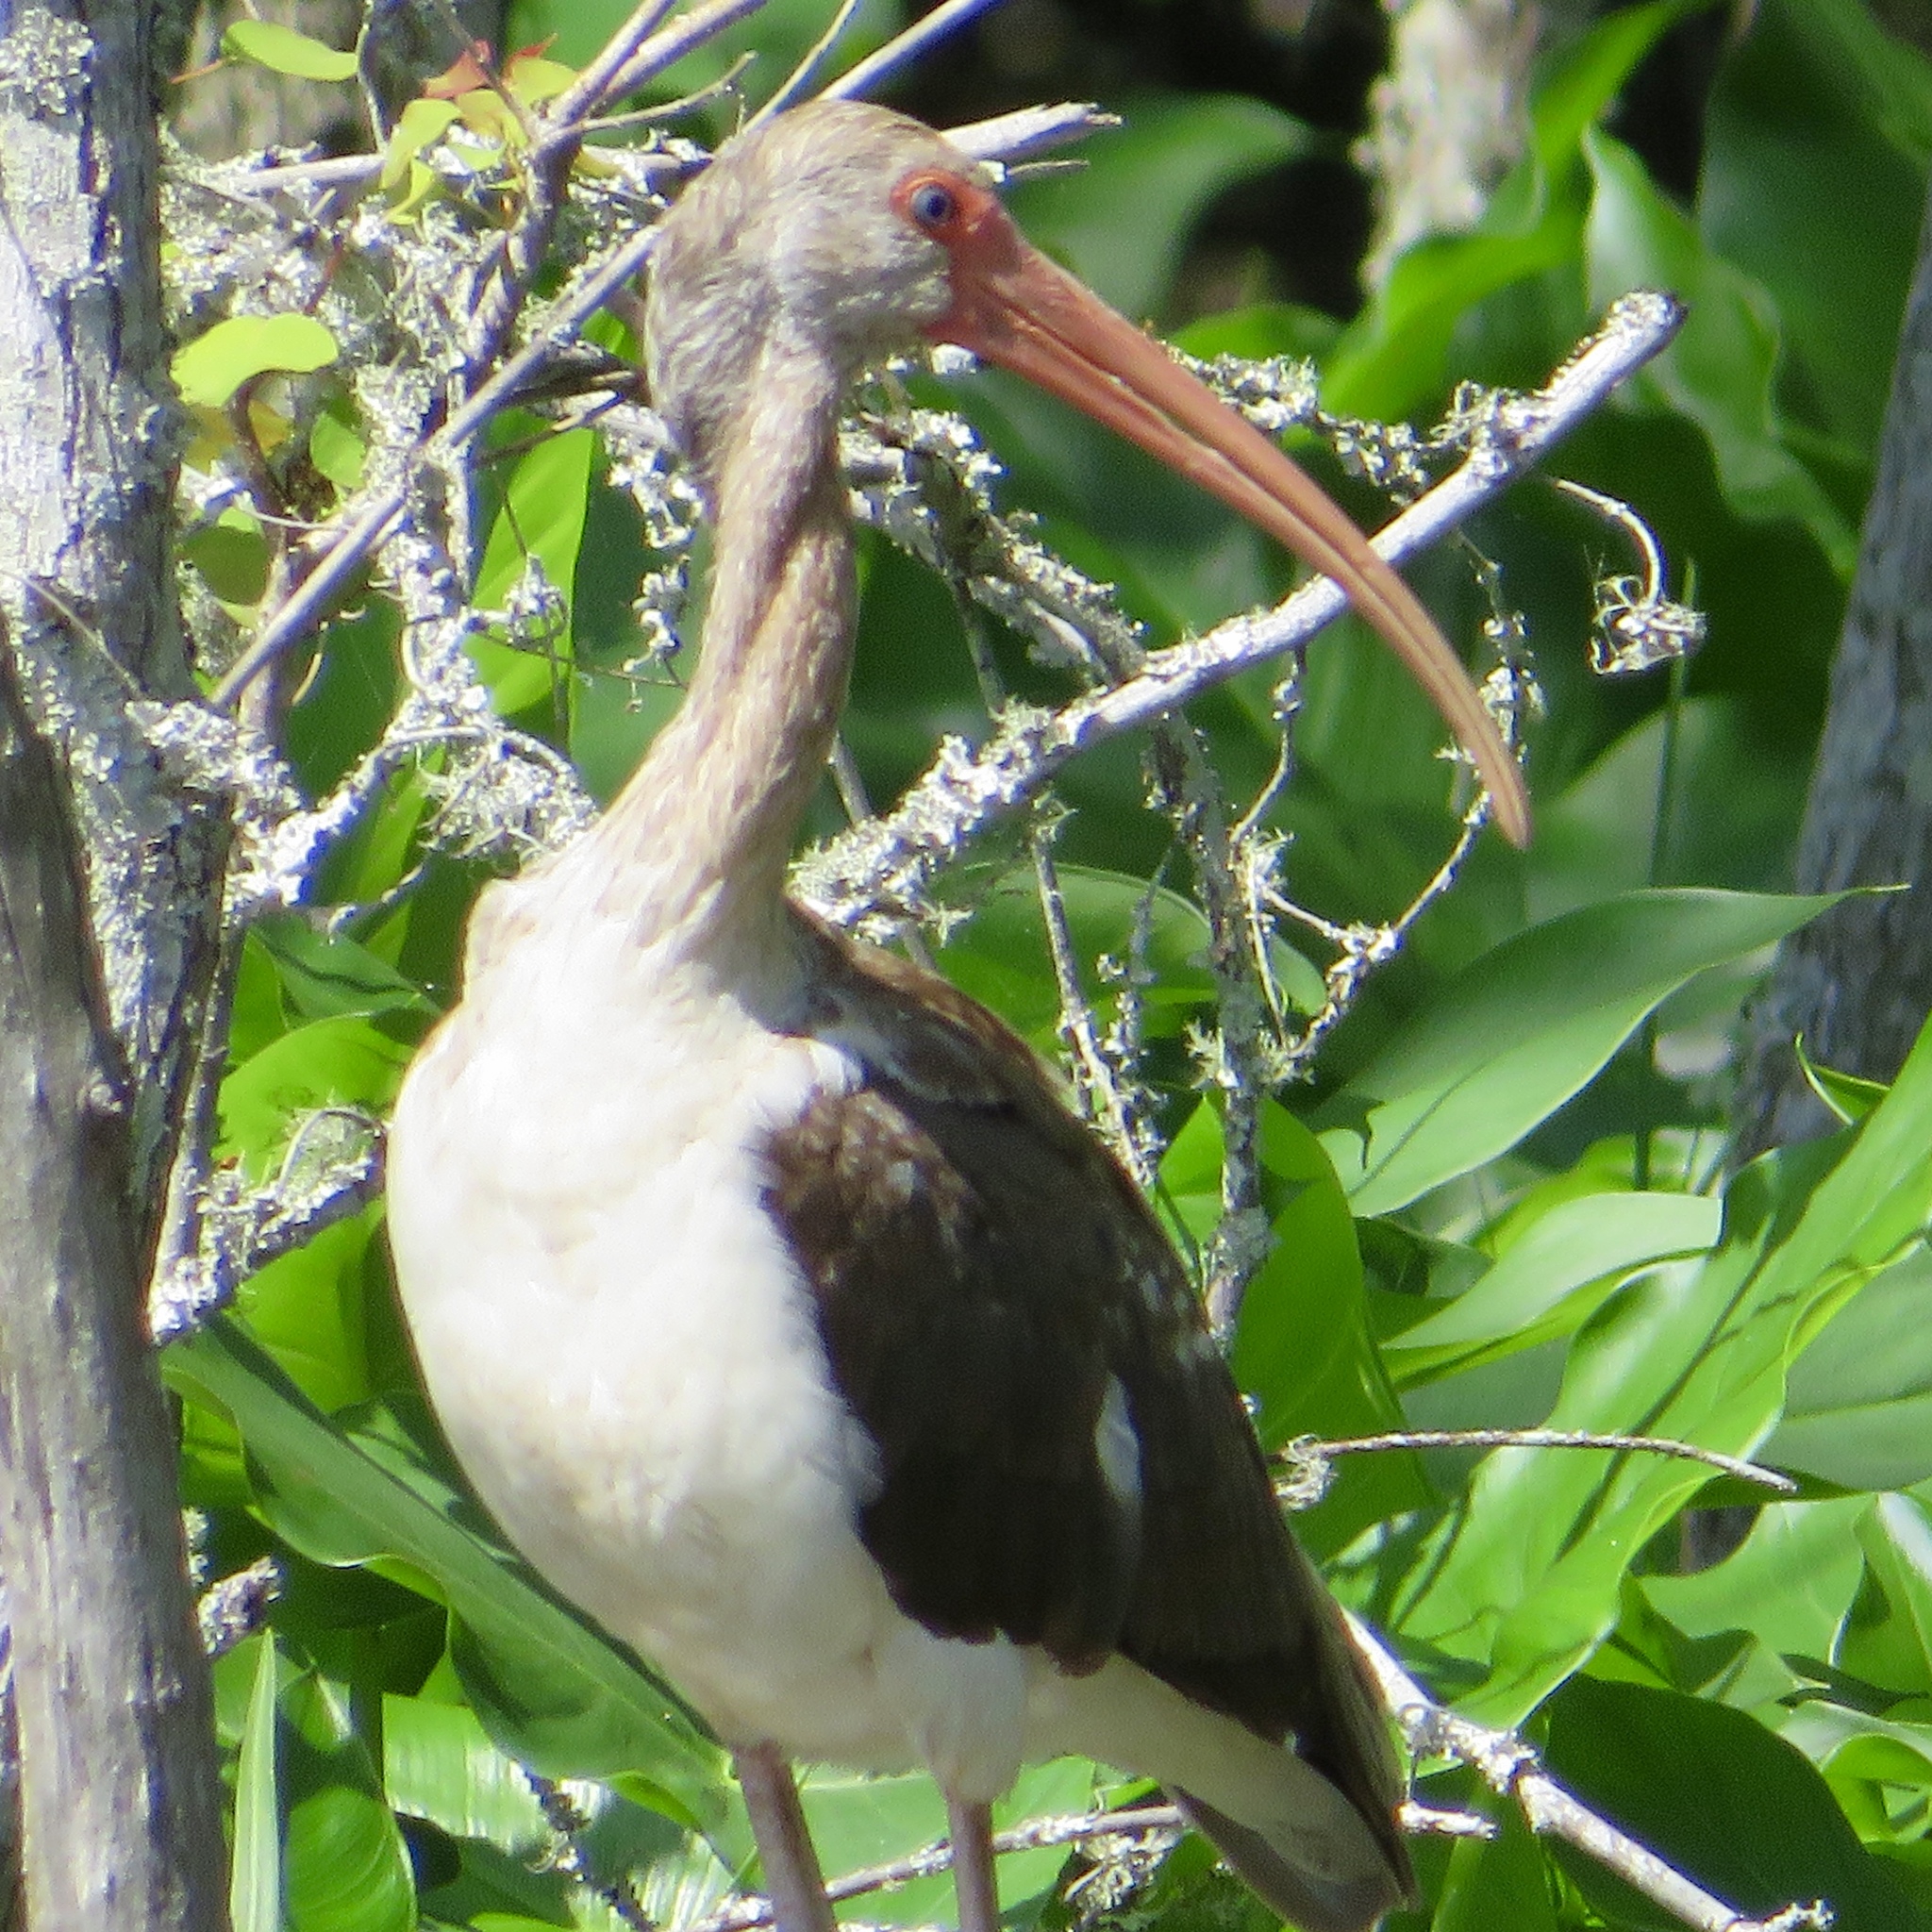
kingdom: Animalia
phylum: Chordata
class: Aves
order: Pelecaniformes
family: Threskiornithidae
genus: Eudocimus
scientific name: Eudocimus albus
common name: White ibis
